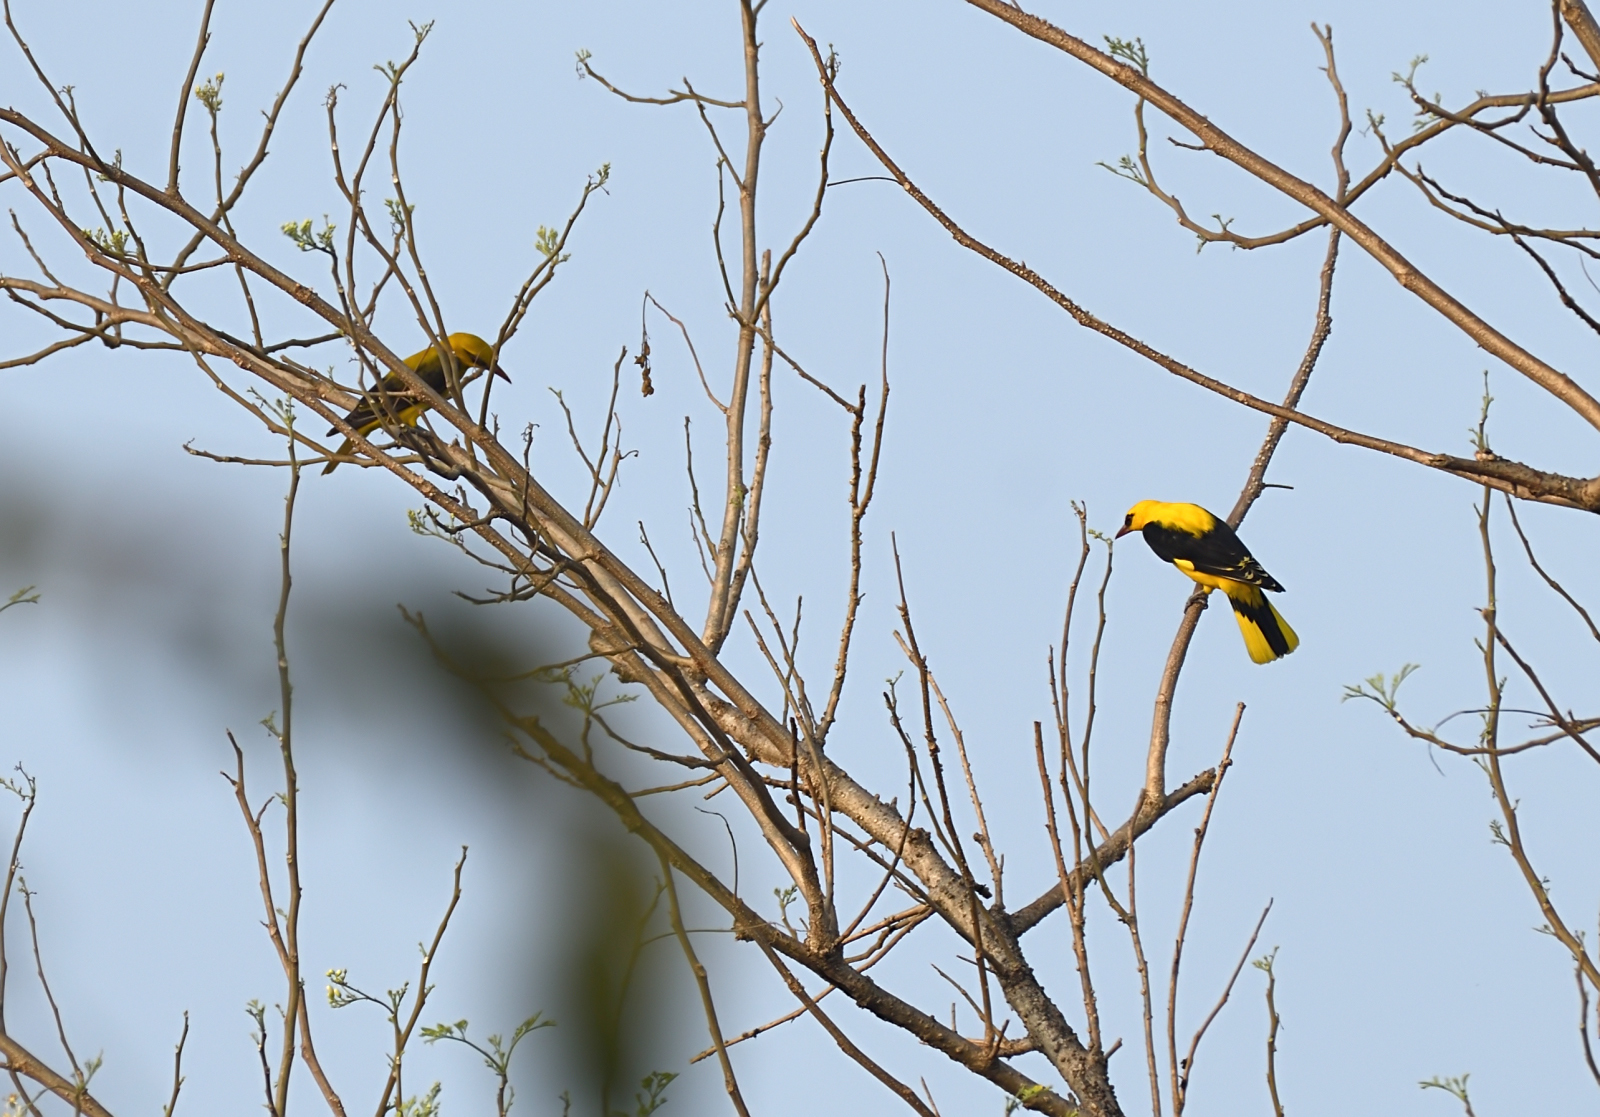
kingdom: Animalia
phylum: Chordata
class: Aves
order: Passeriformes
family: Oriolidae
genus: Oriolus
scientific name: Oriolus kundoo
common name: Indian golden oriole
